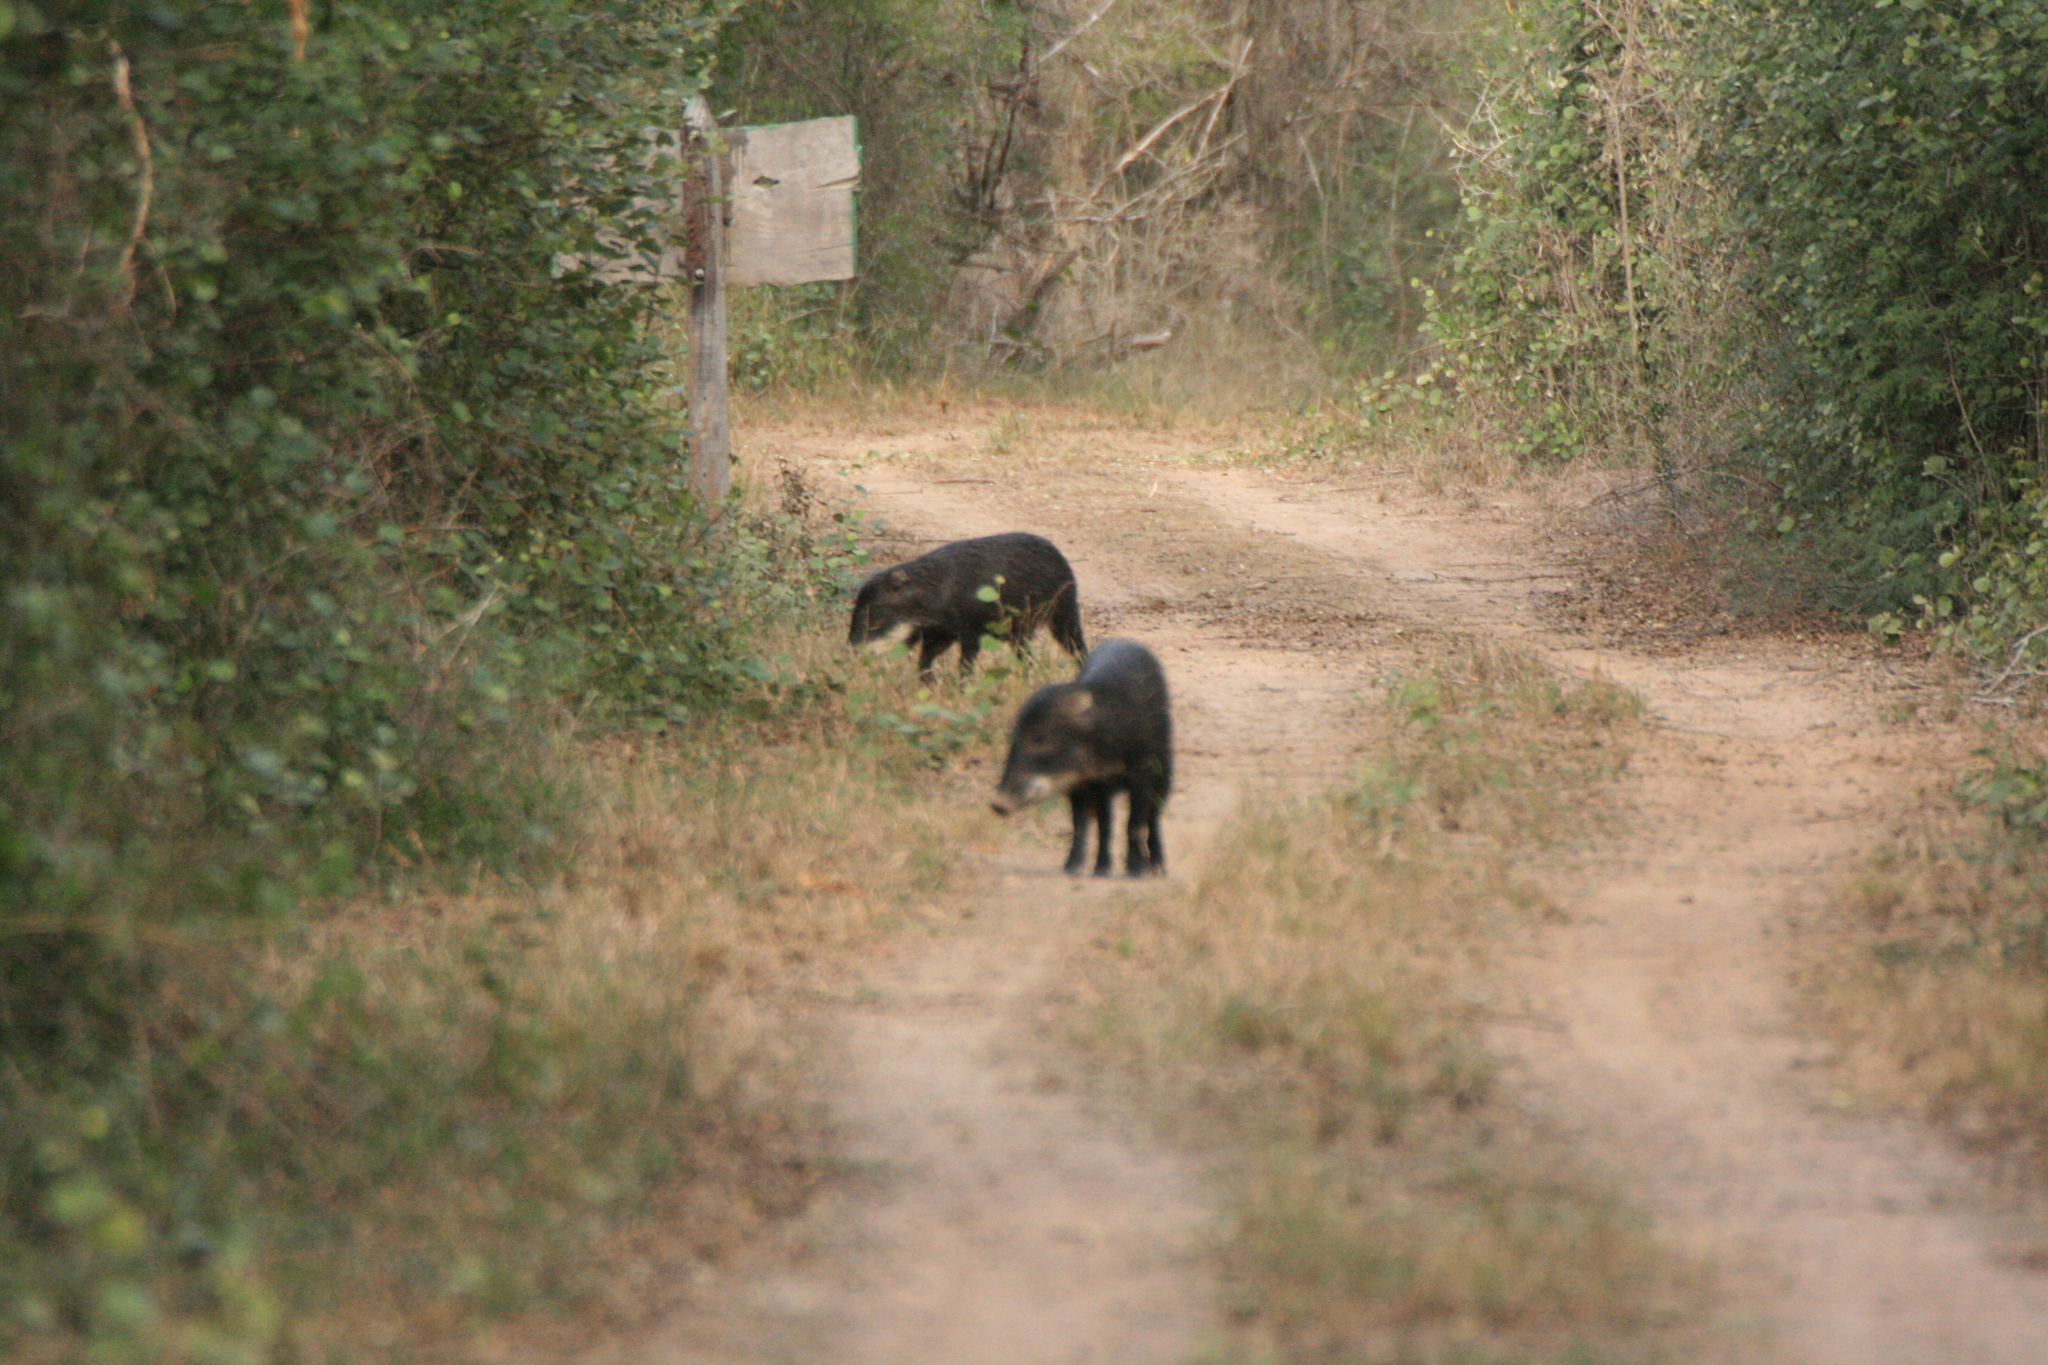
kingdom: Animalia
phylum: Chordata
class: Mammalia
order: Artiodactyla
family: Tayassuidae
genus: Tayassu
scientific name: Tayassu pecari
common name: White-lipped peccary
